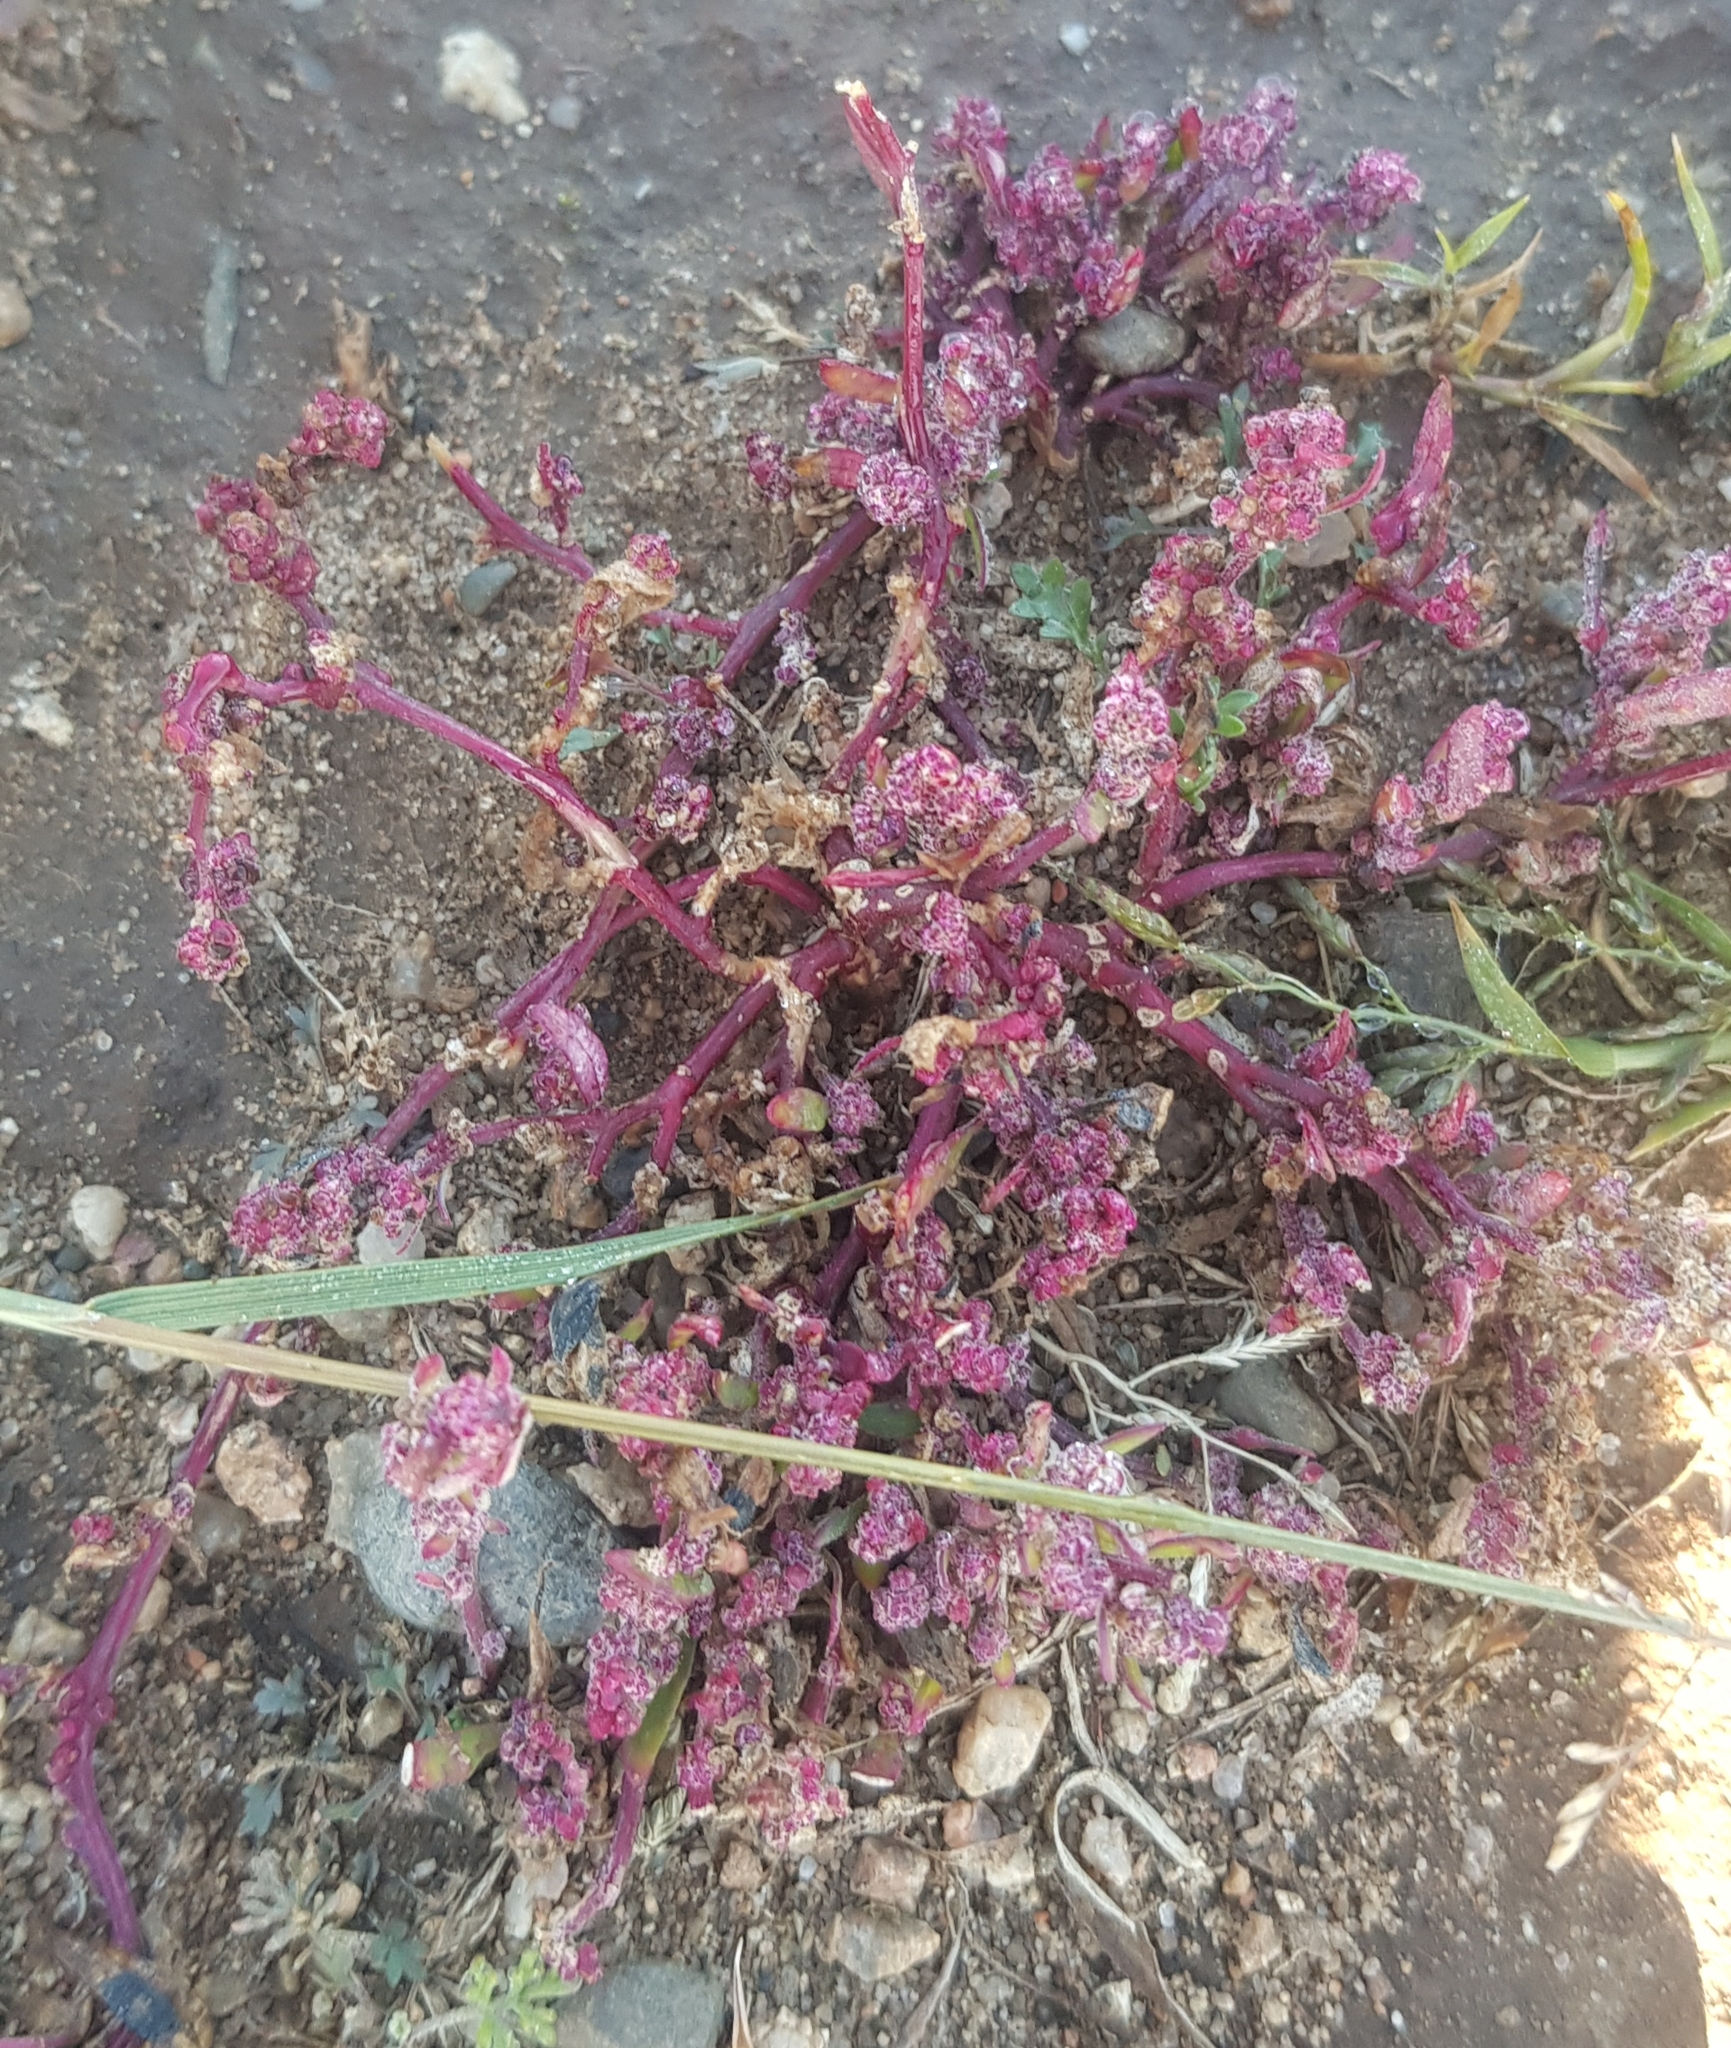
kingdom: Plantae
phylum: Tracheophyta
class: Magnoliopsida
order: Caryophyllales
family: Amaranthaceae
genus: Oxybasis
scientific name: Oxybasis glauca
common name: Glaucous goosefoot
